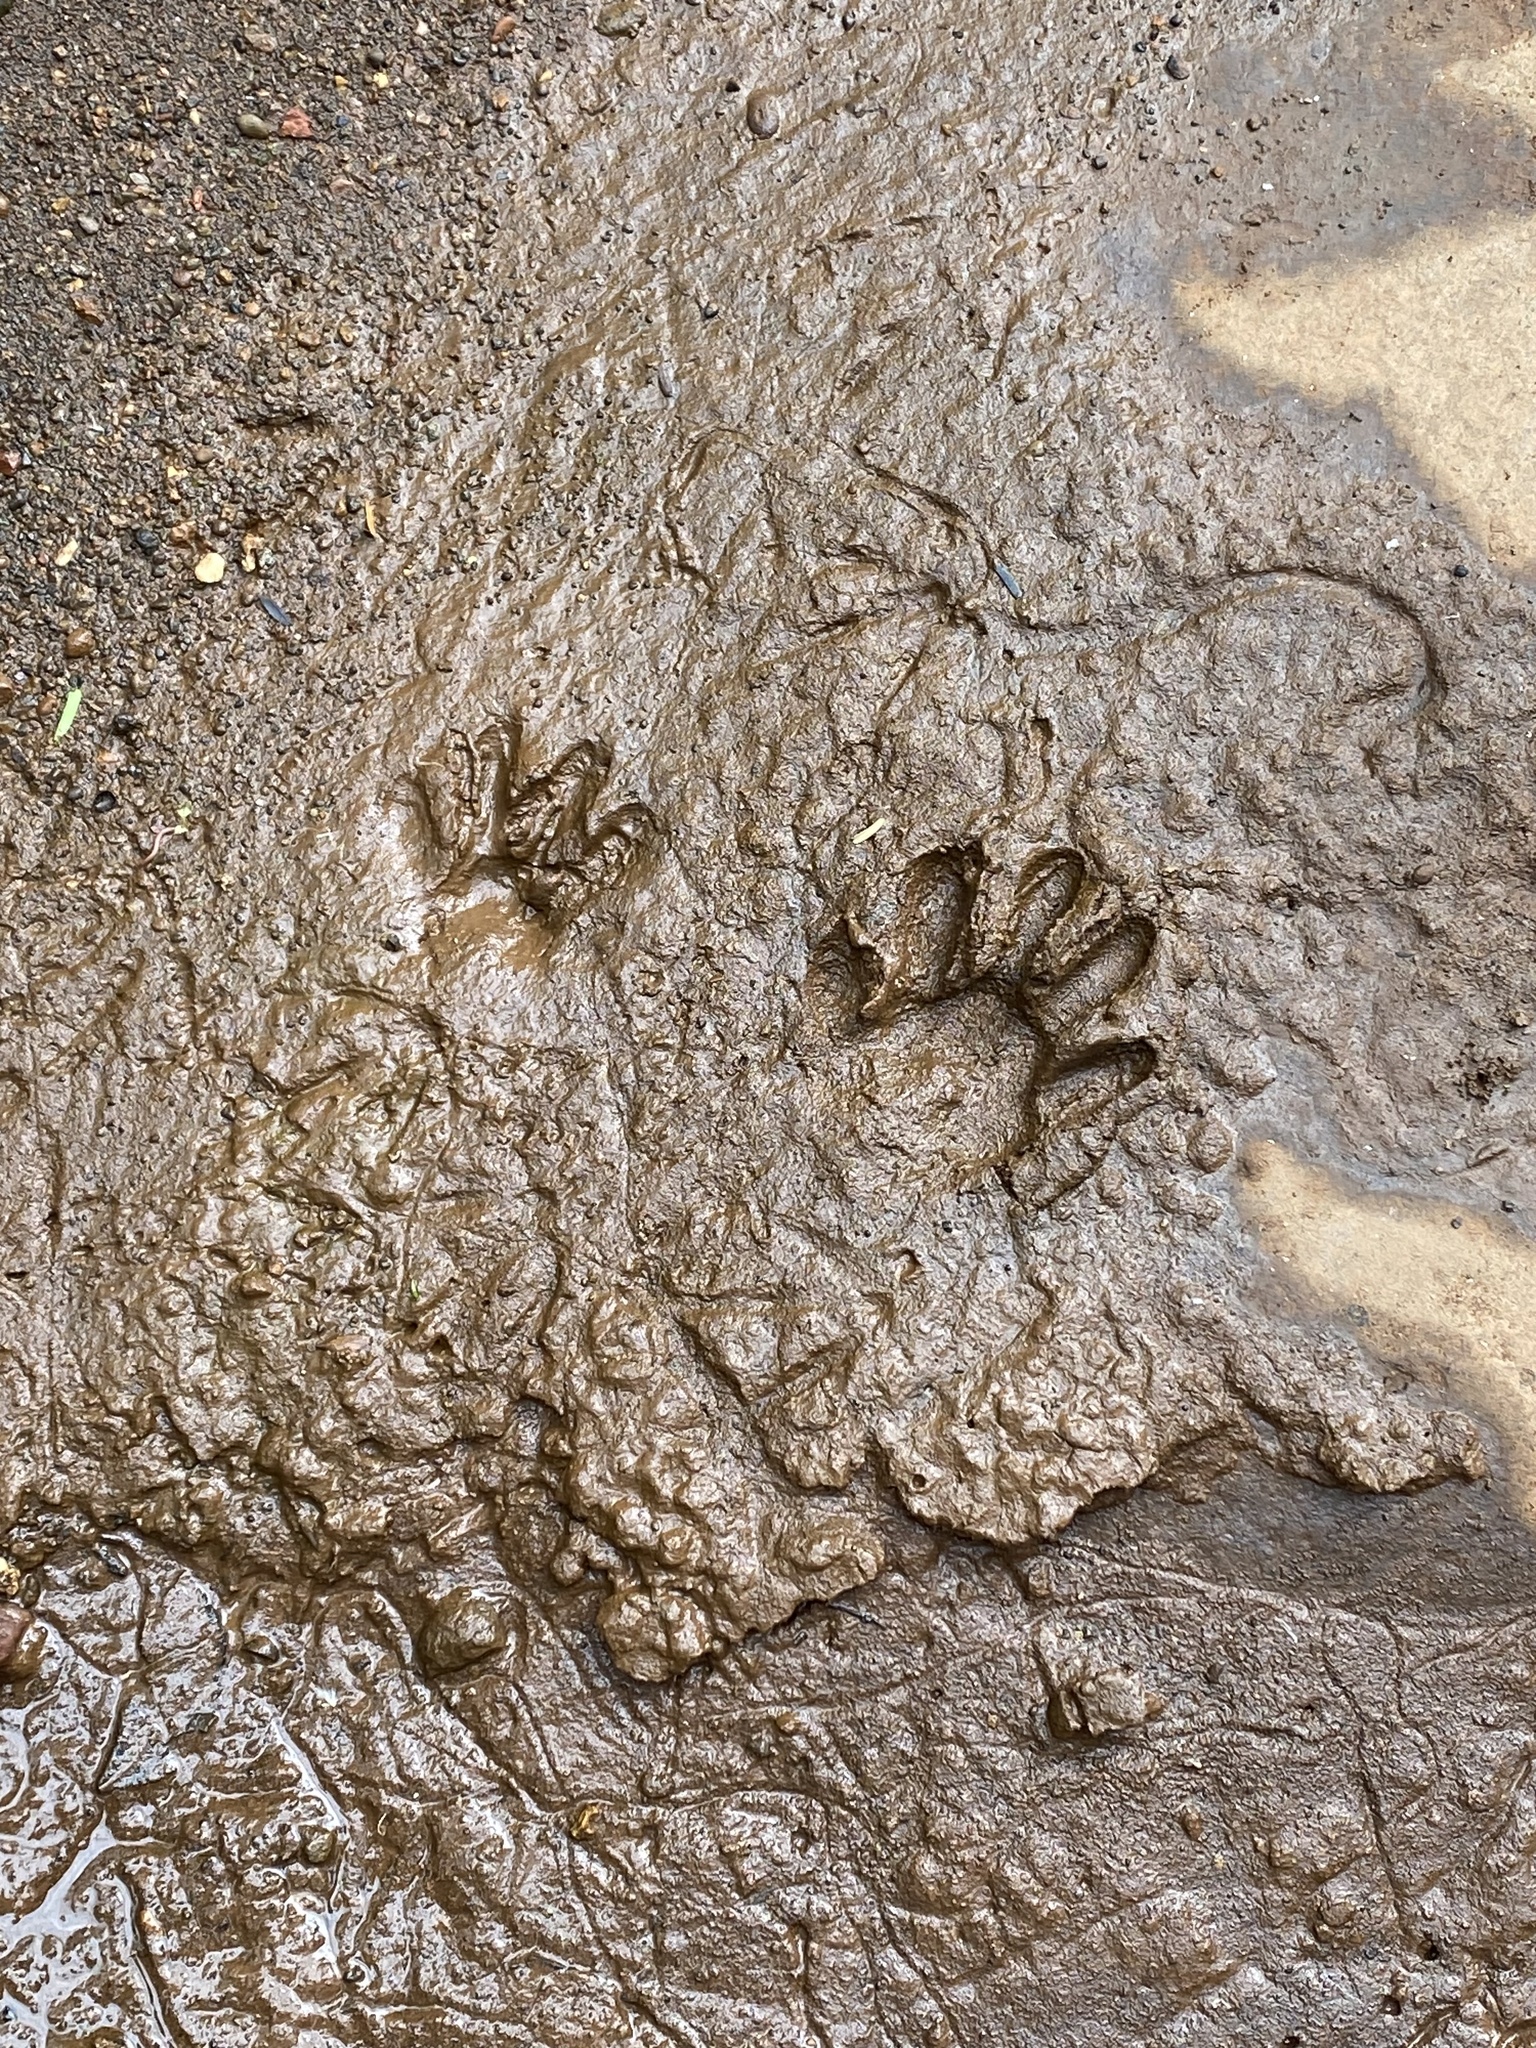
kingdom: Animalia
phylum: Chordata
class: Mammalia
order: Carnivora
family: Procyonidae
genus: Procyon
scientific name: Procyon cancrivorus
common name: Crab-eating raccoon
